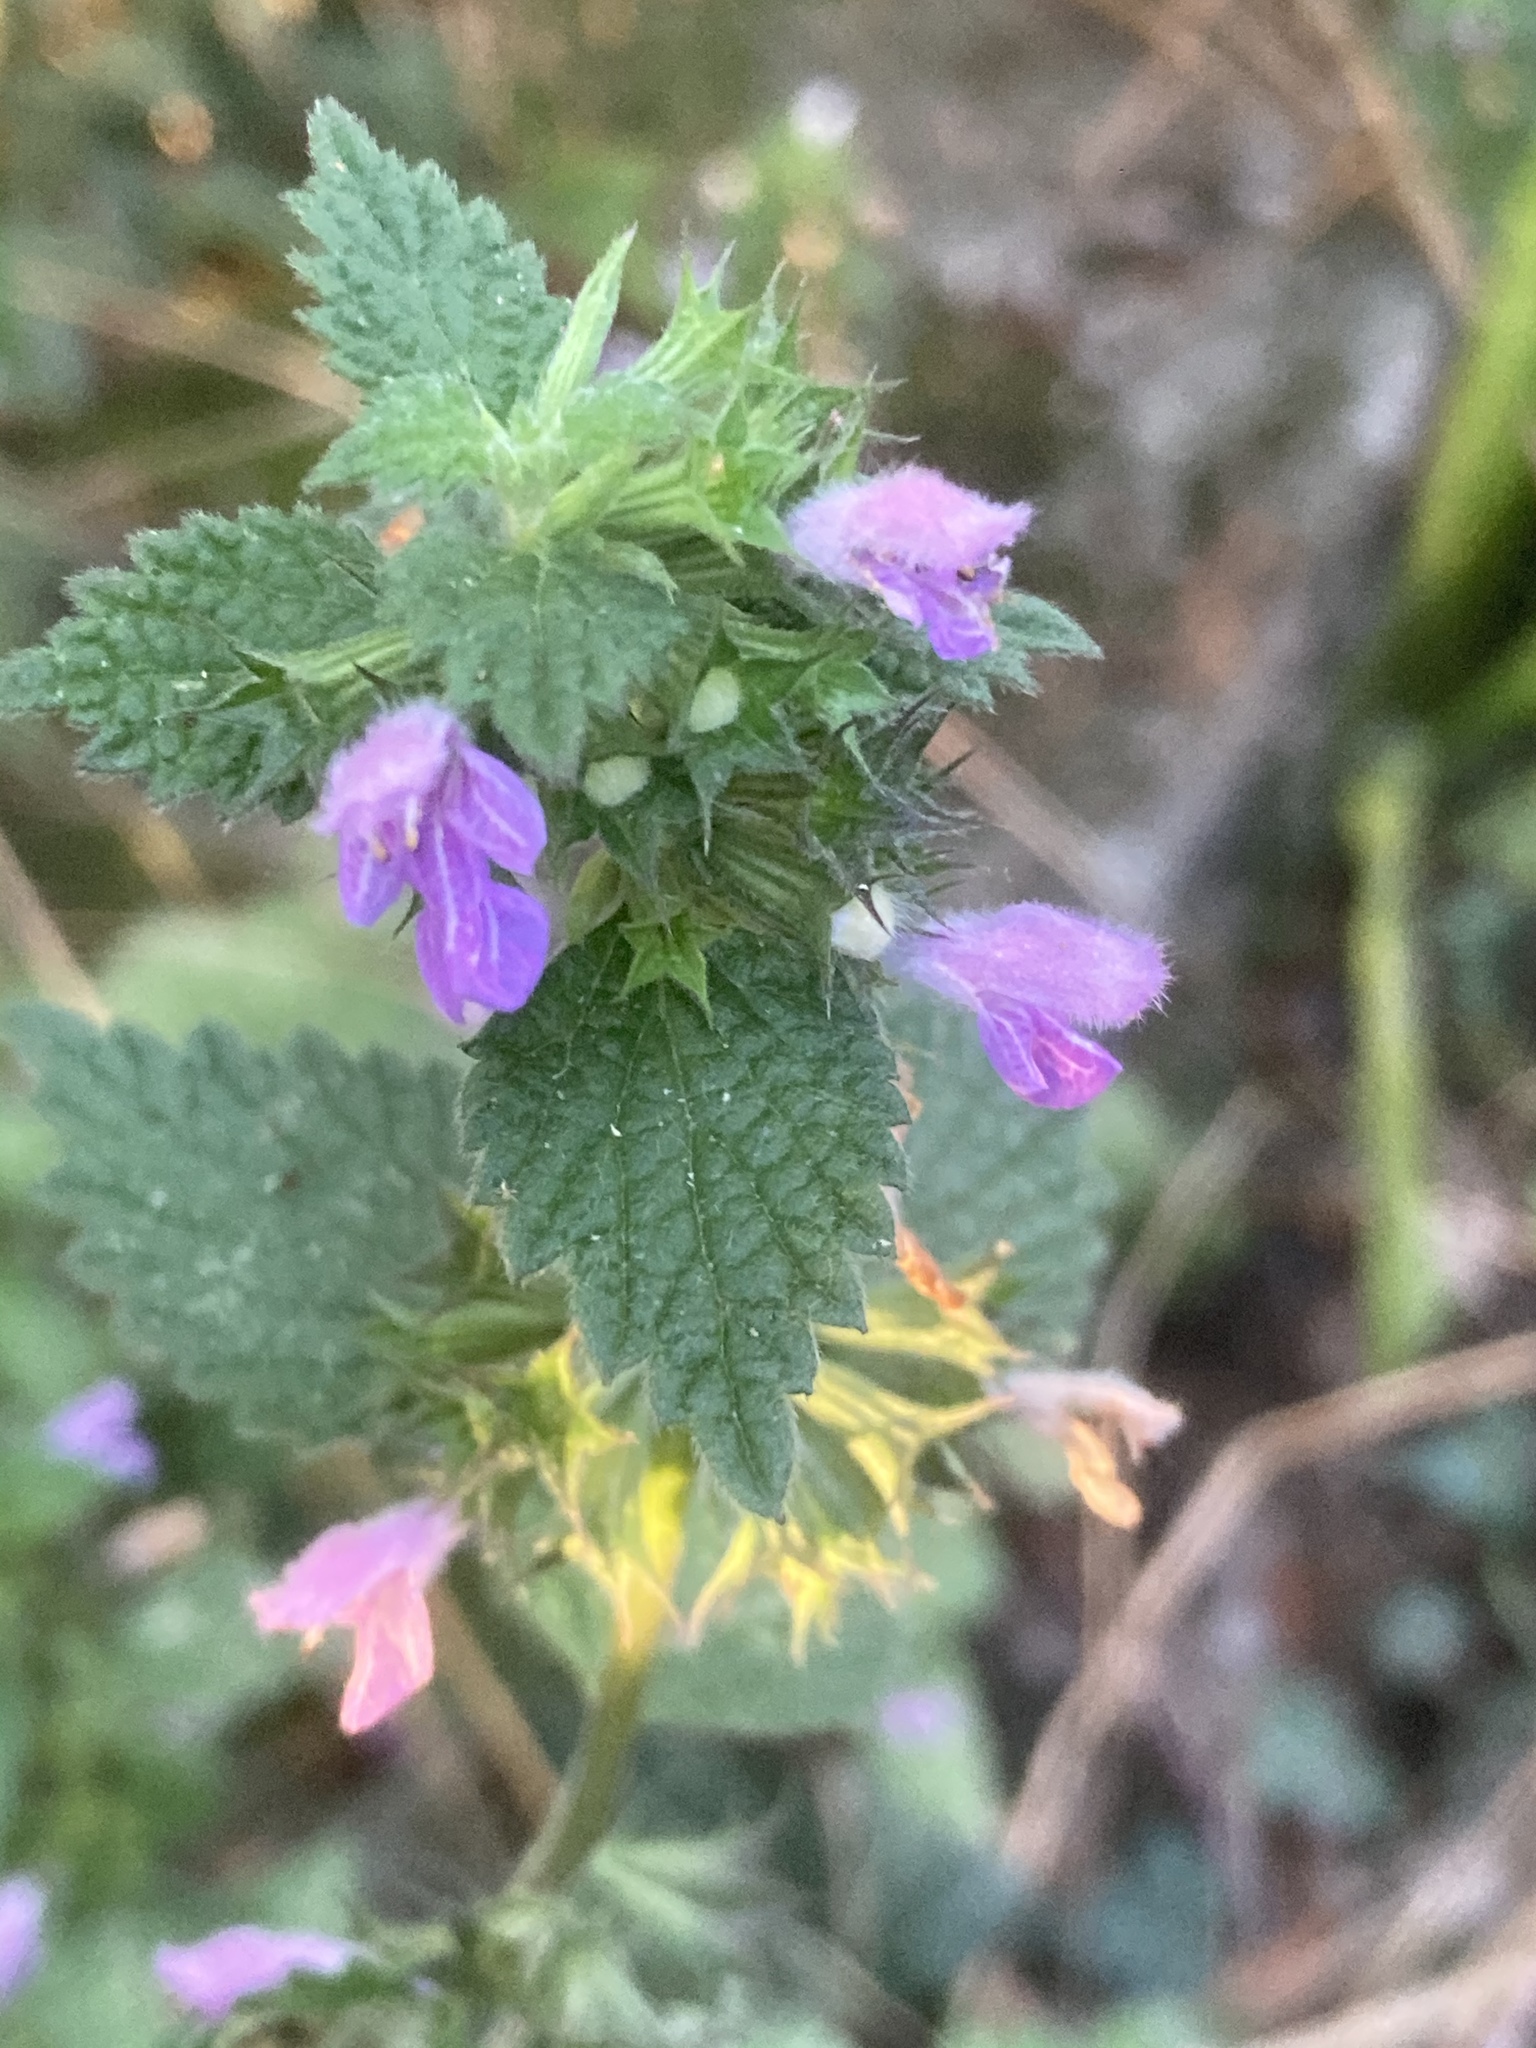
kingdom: Plantae
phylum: Tracheophyta
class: Magnoliopsida
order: Lamiales
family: Lamiaceae
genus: Ballota
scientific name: Ballota nigra
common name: Black horehound
